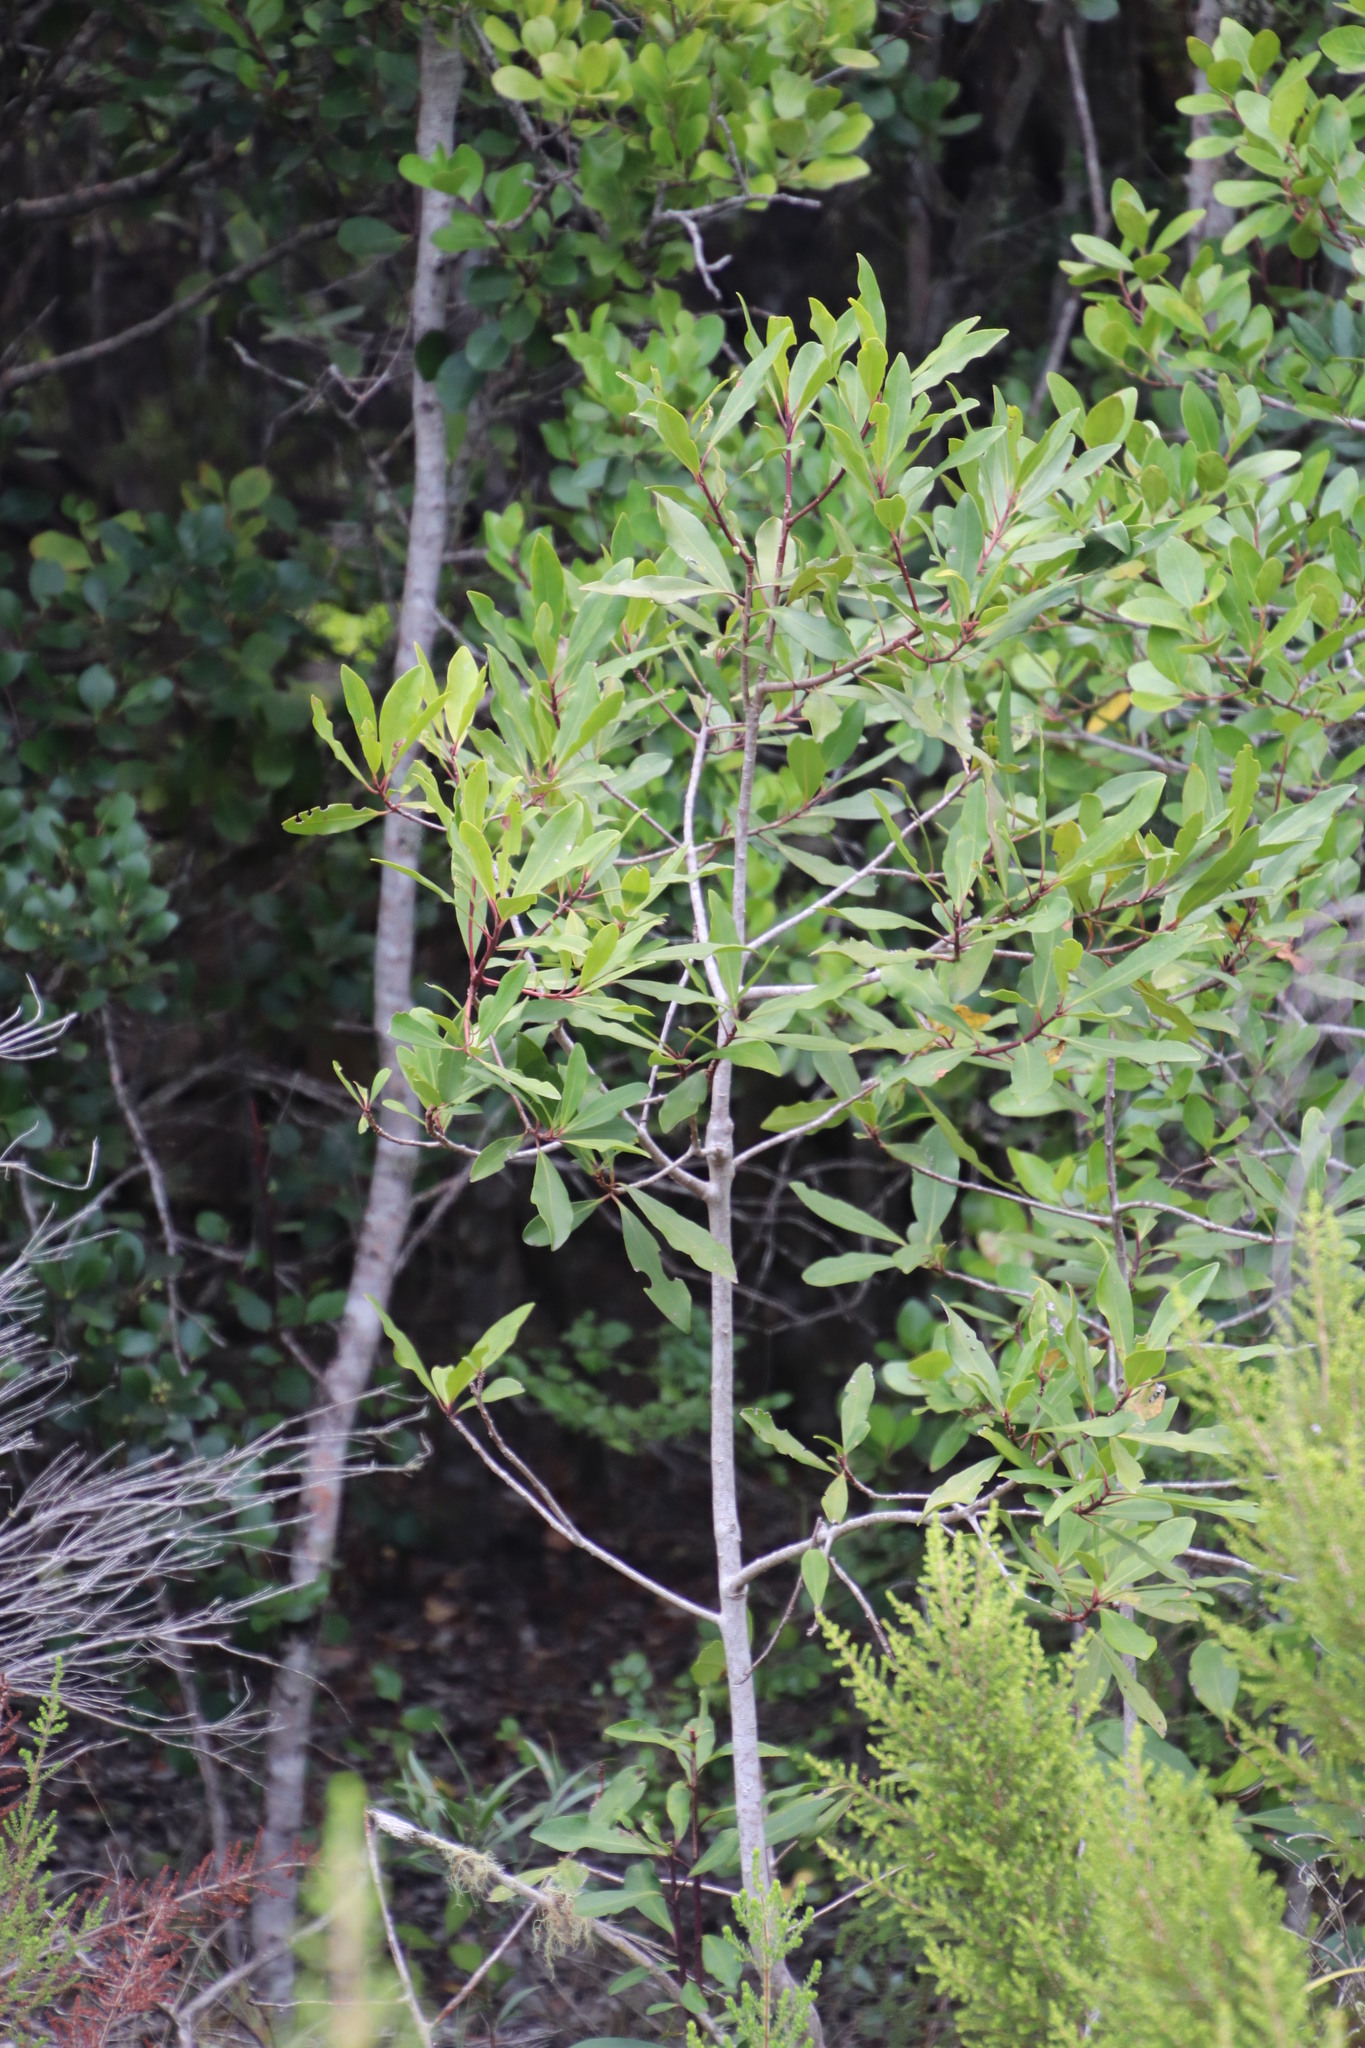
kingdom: Plantae
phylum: Tracheophyta
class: Magnoliopsida
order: Ericales
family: Primulaceae
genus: Myrsine
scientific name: Myrsine melanophloeos
